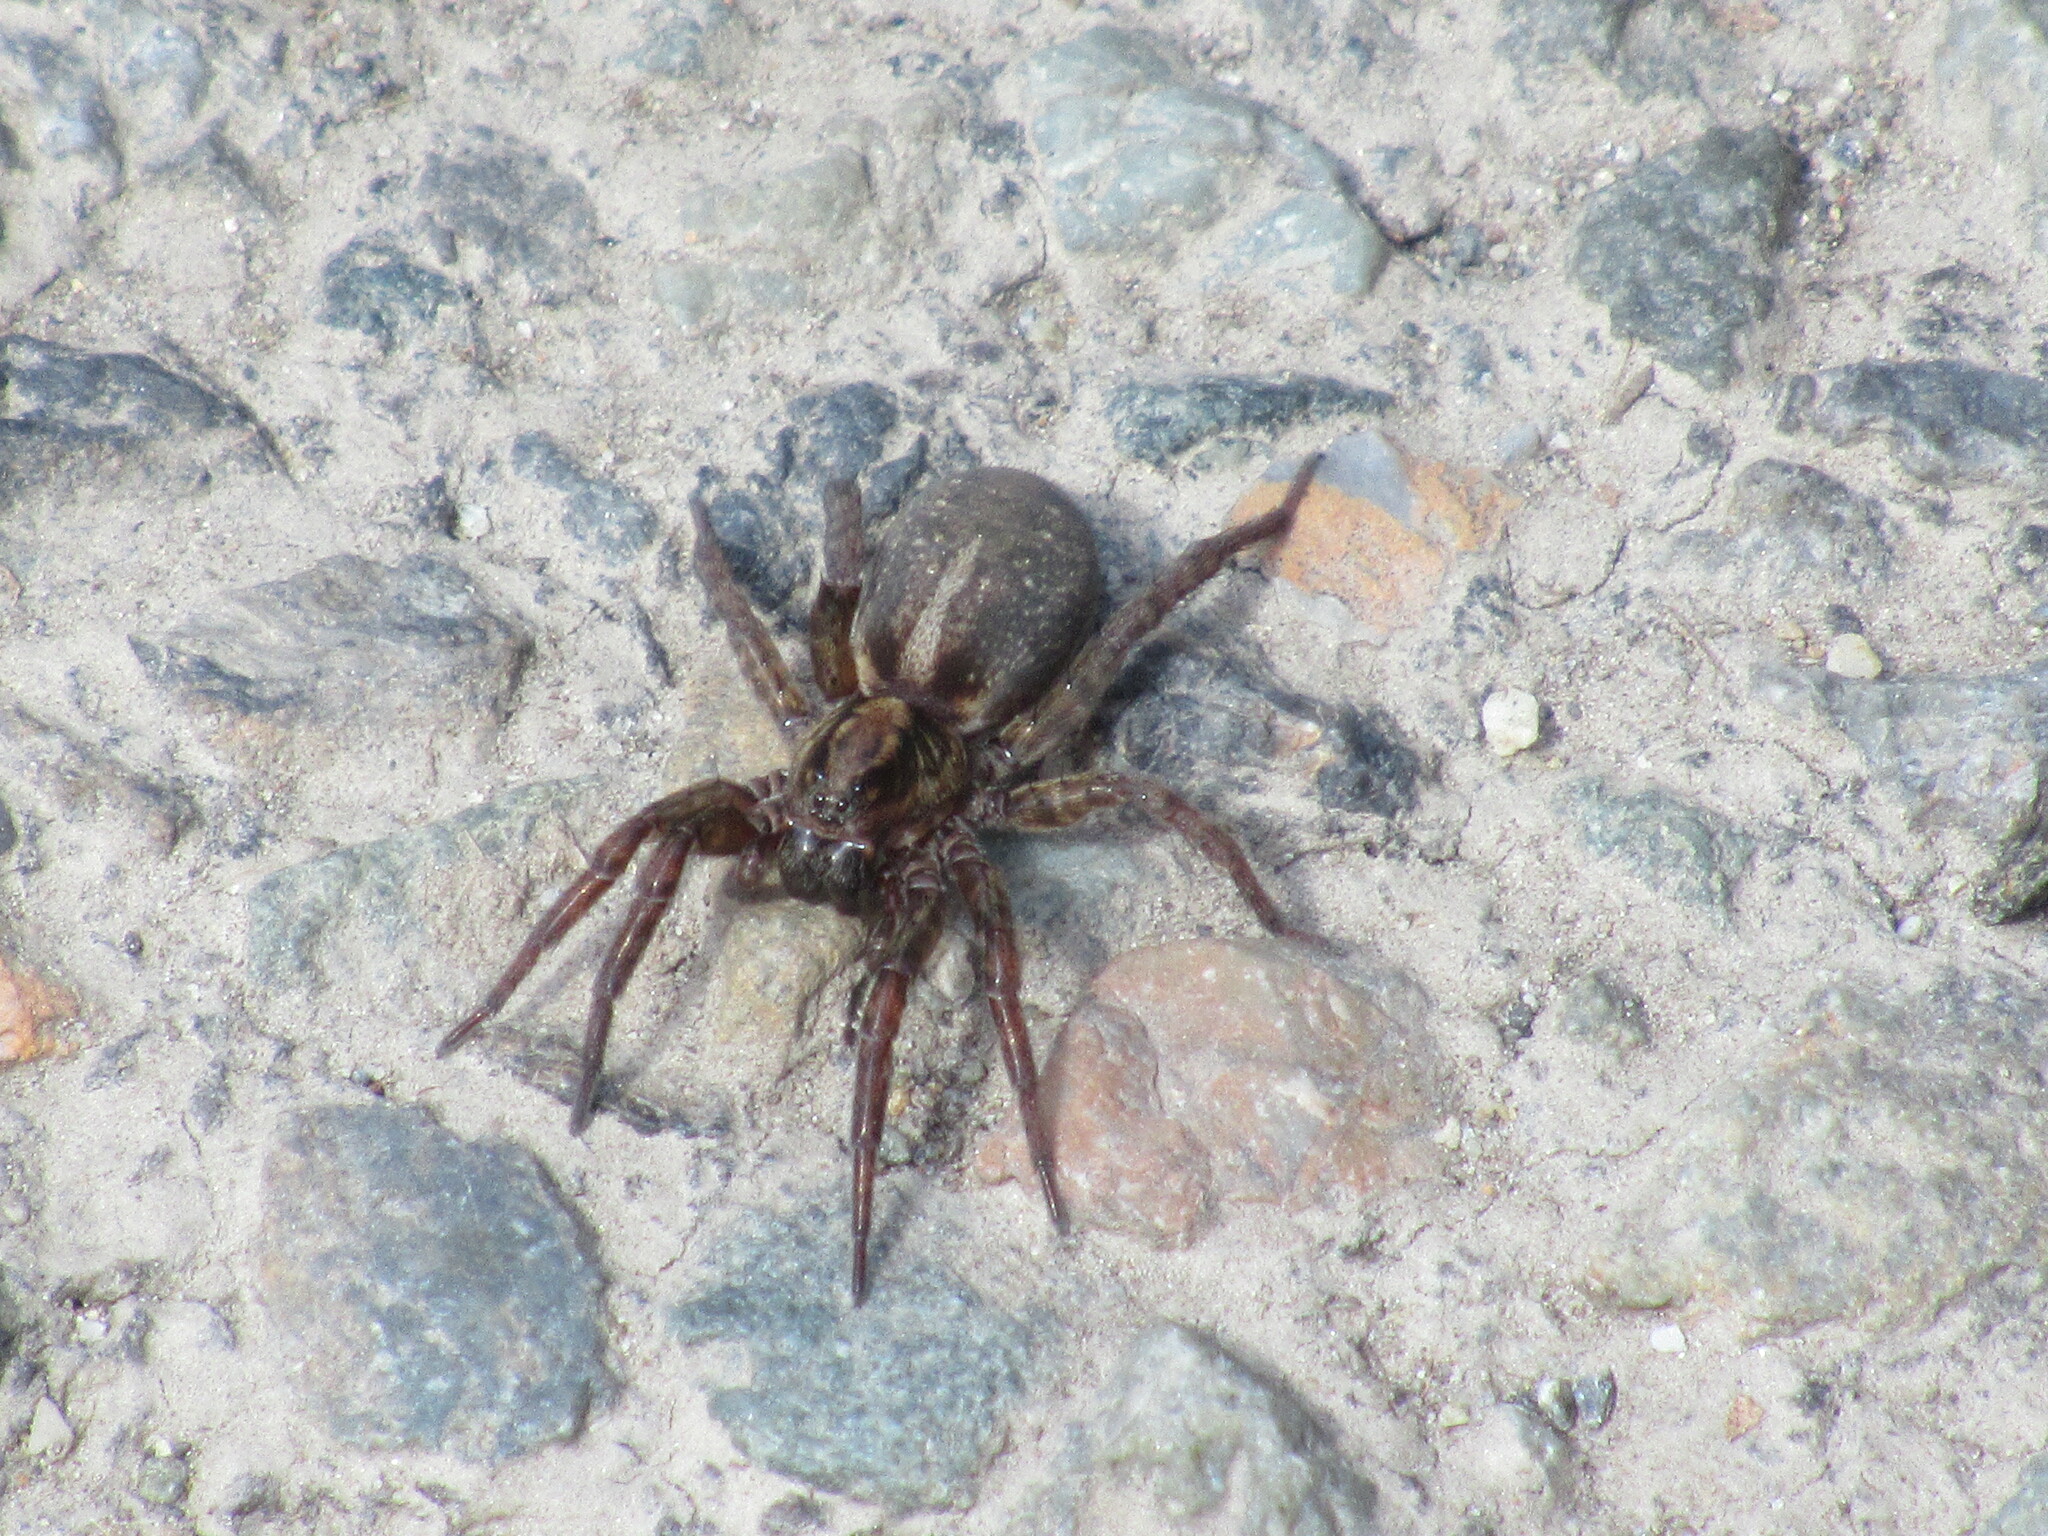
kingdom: Animalia
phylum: Arthropoda
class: Arachnida
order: Araneae
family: Lycosidae
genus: Trochosa
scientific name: Trochosa ruricola
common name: Spider
